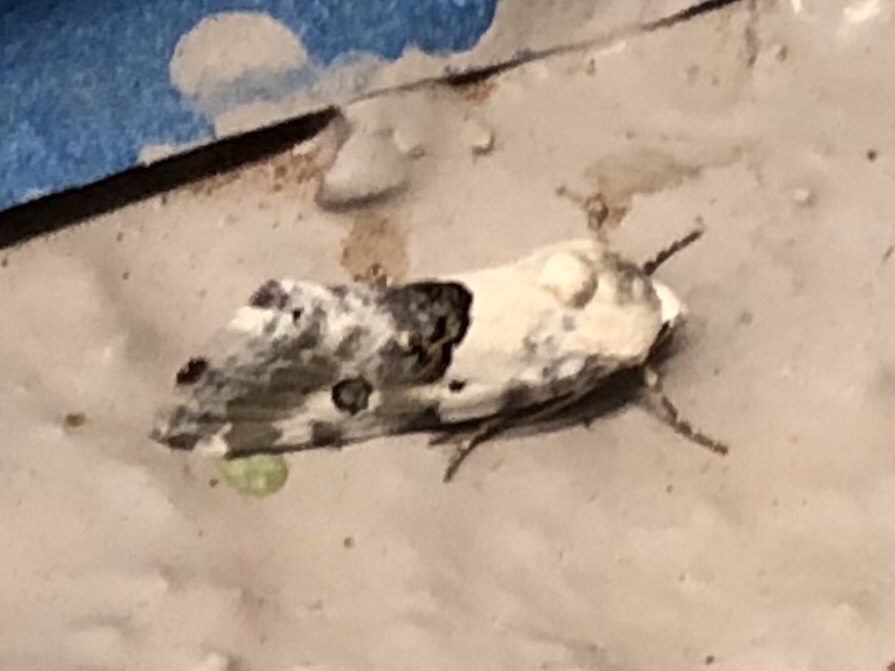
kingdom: Animalia
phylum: Arthropoda
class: Insecta
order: Lepidoptera
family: Noctuidae
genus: Acontia
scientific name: Acontia candefacta
